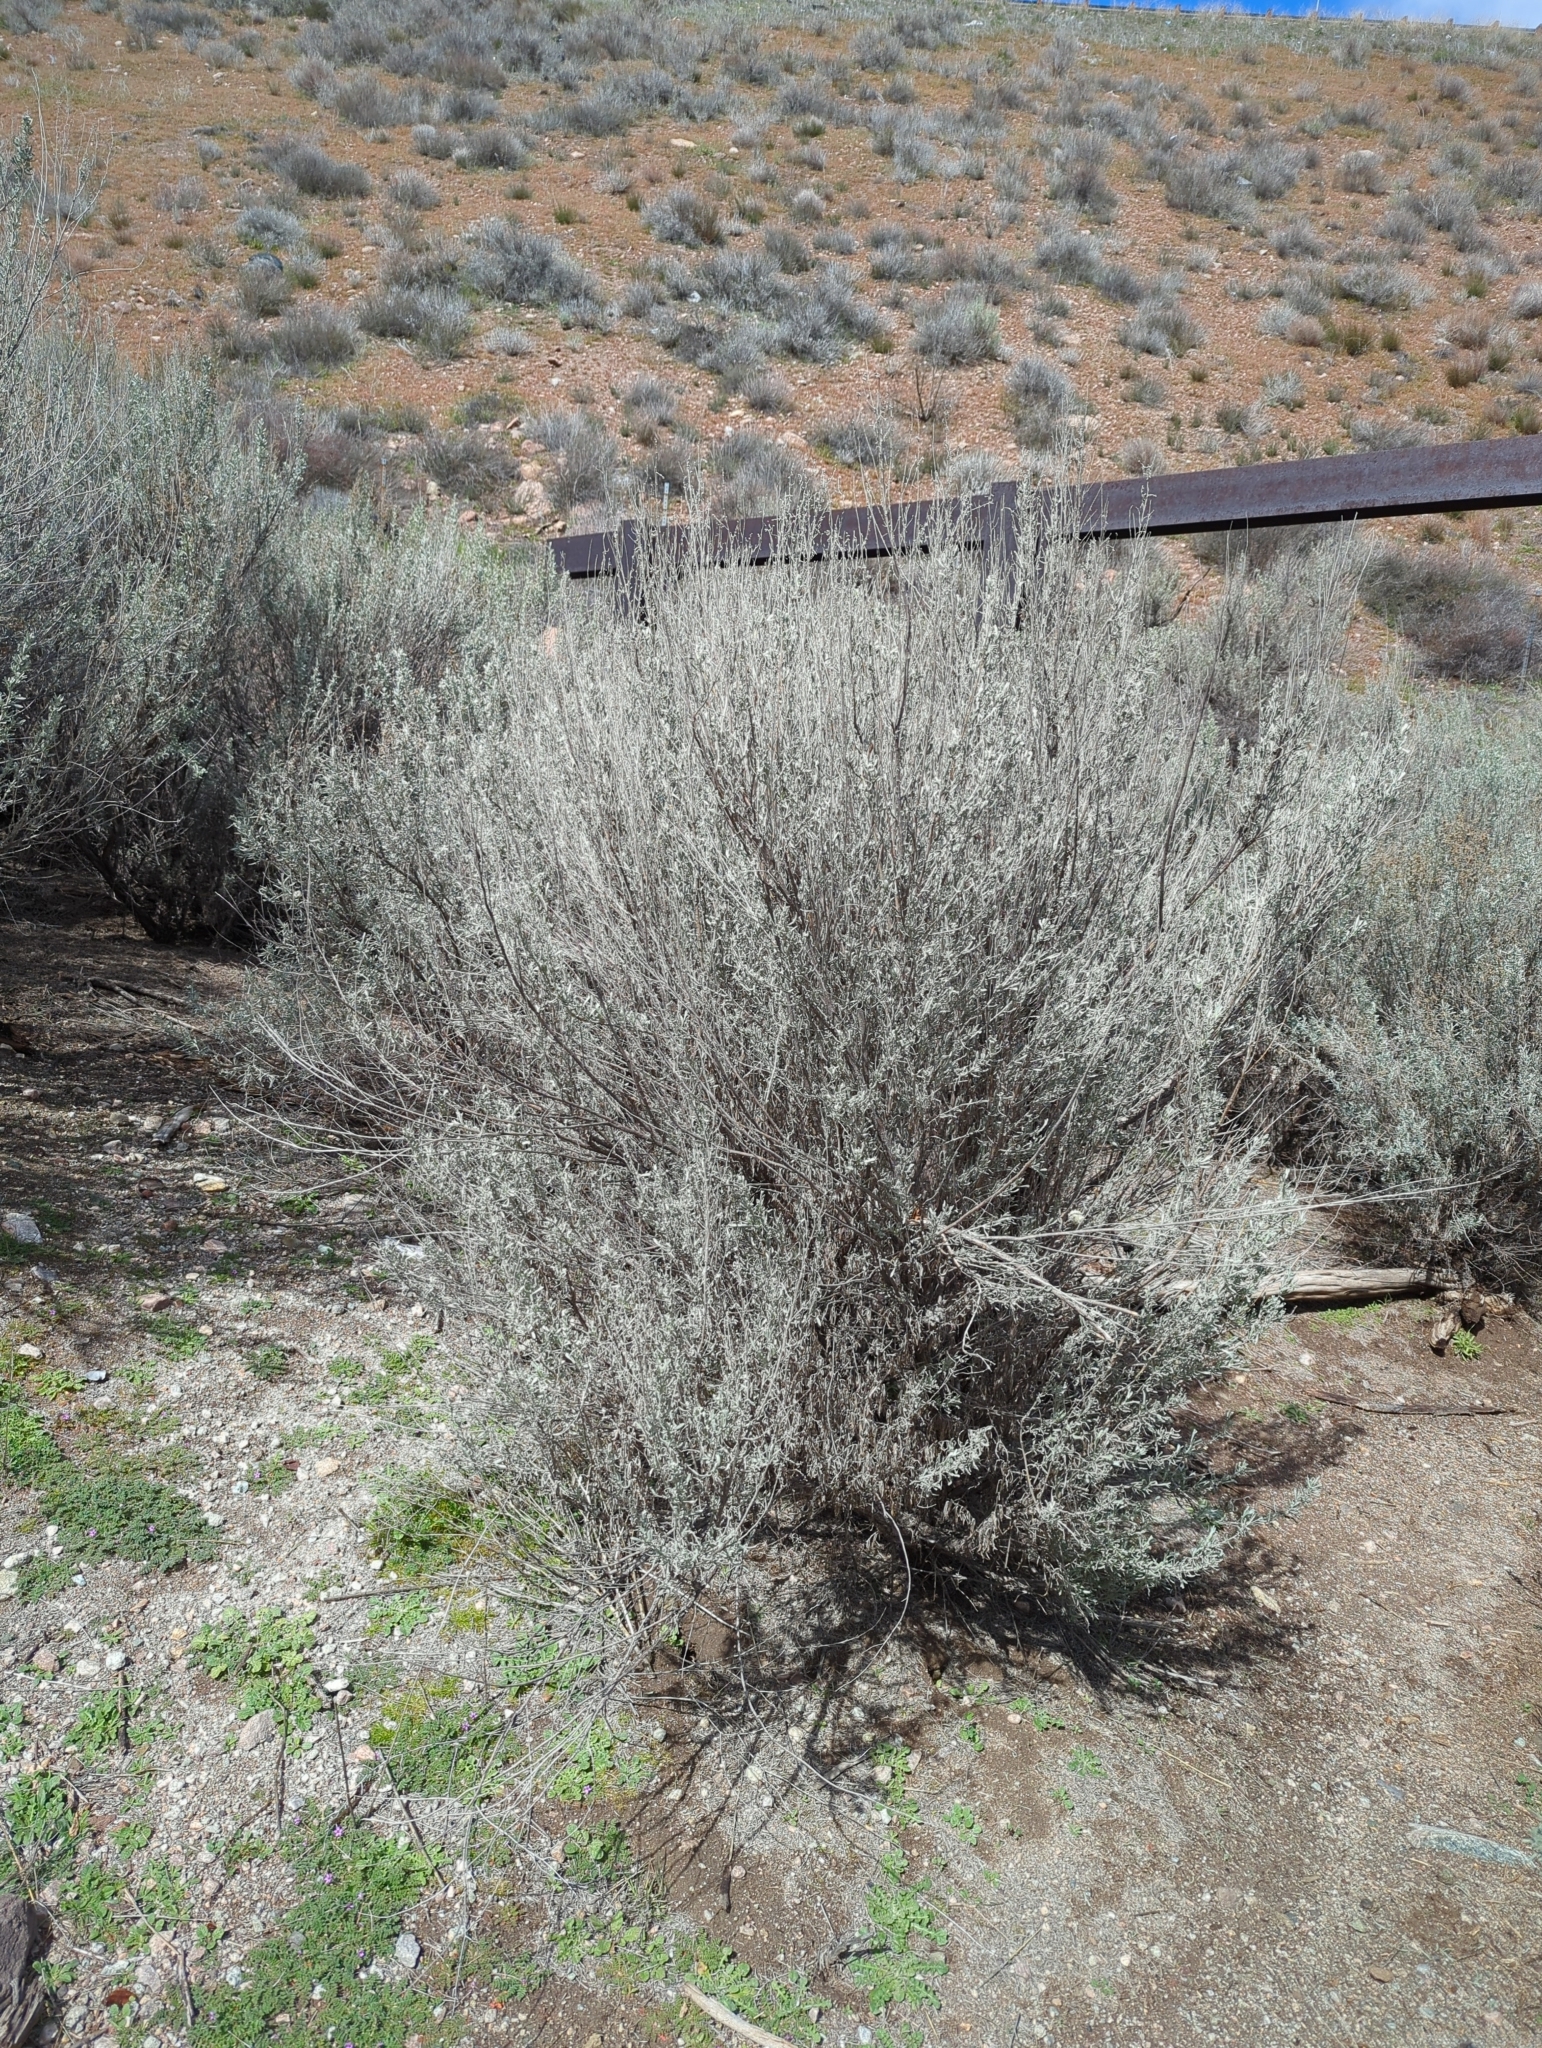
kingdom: Plantae
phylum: Tracheophyta
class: Magnoliopsida
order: Asterales
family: Asteraceae
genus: Artemisia
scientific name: Artemisia tridentata
